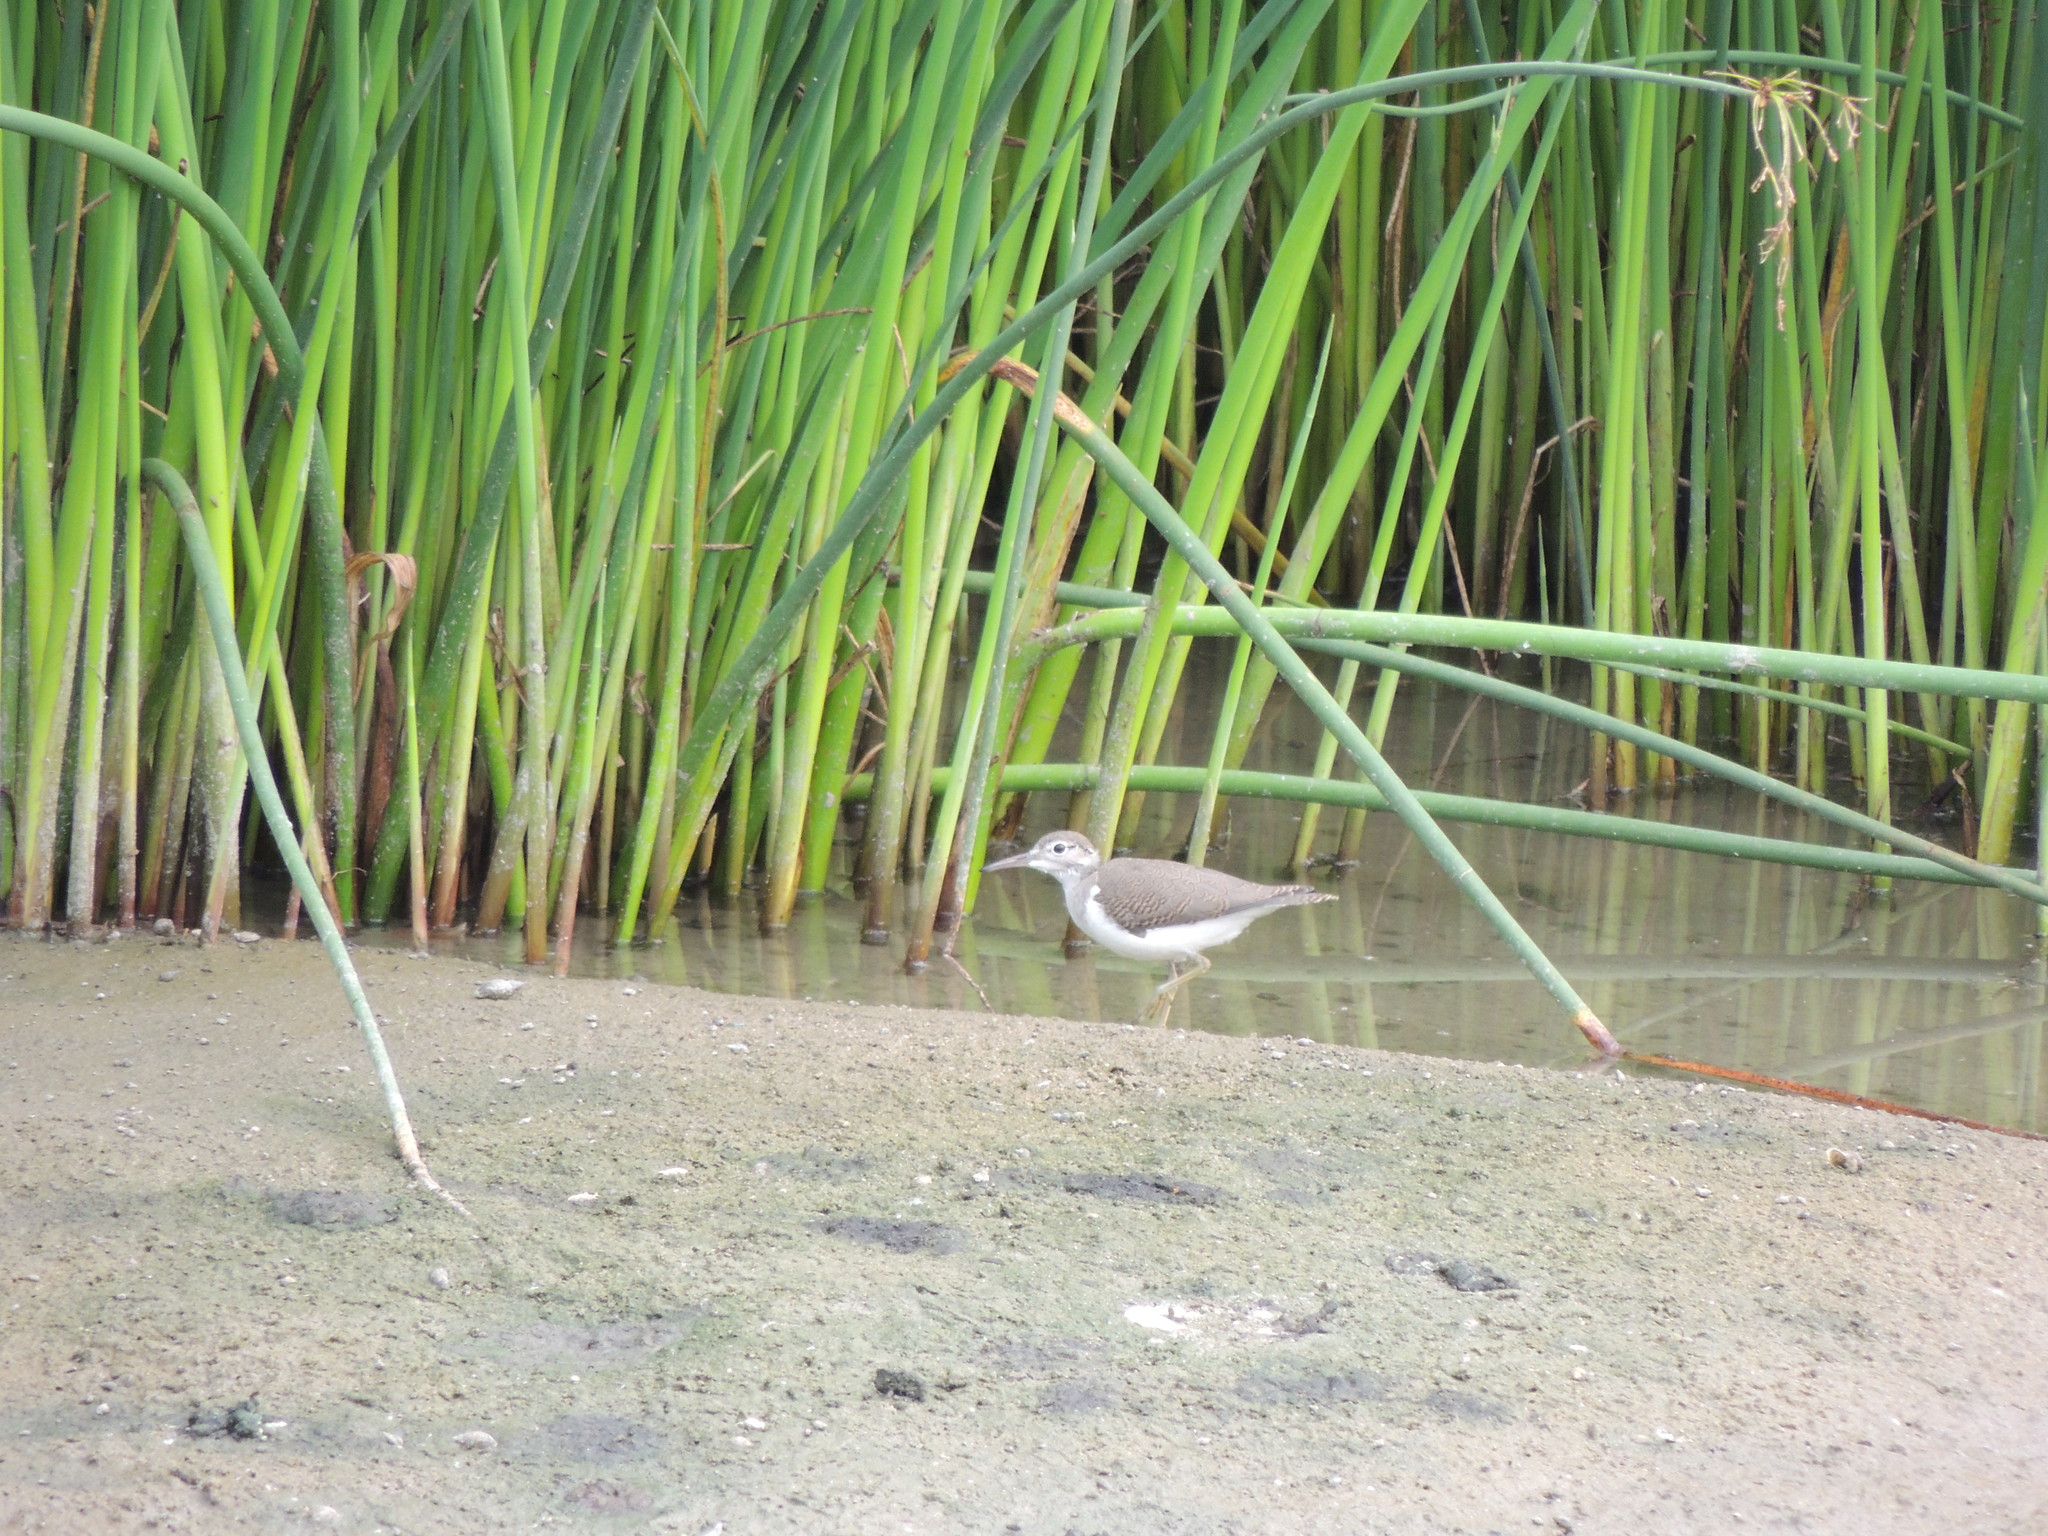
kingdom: Animalia
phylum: Chordata
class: Aves
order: Charadriiformes
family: Scolopacidae
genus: Actitis
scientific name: Actitis macularius
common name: Spotted sandpiper
